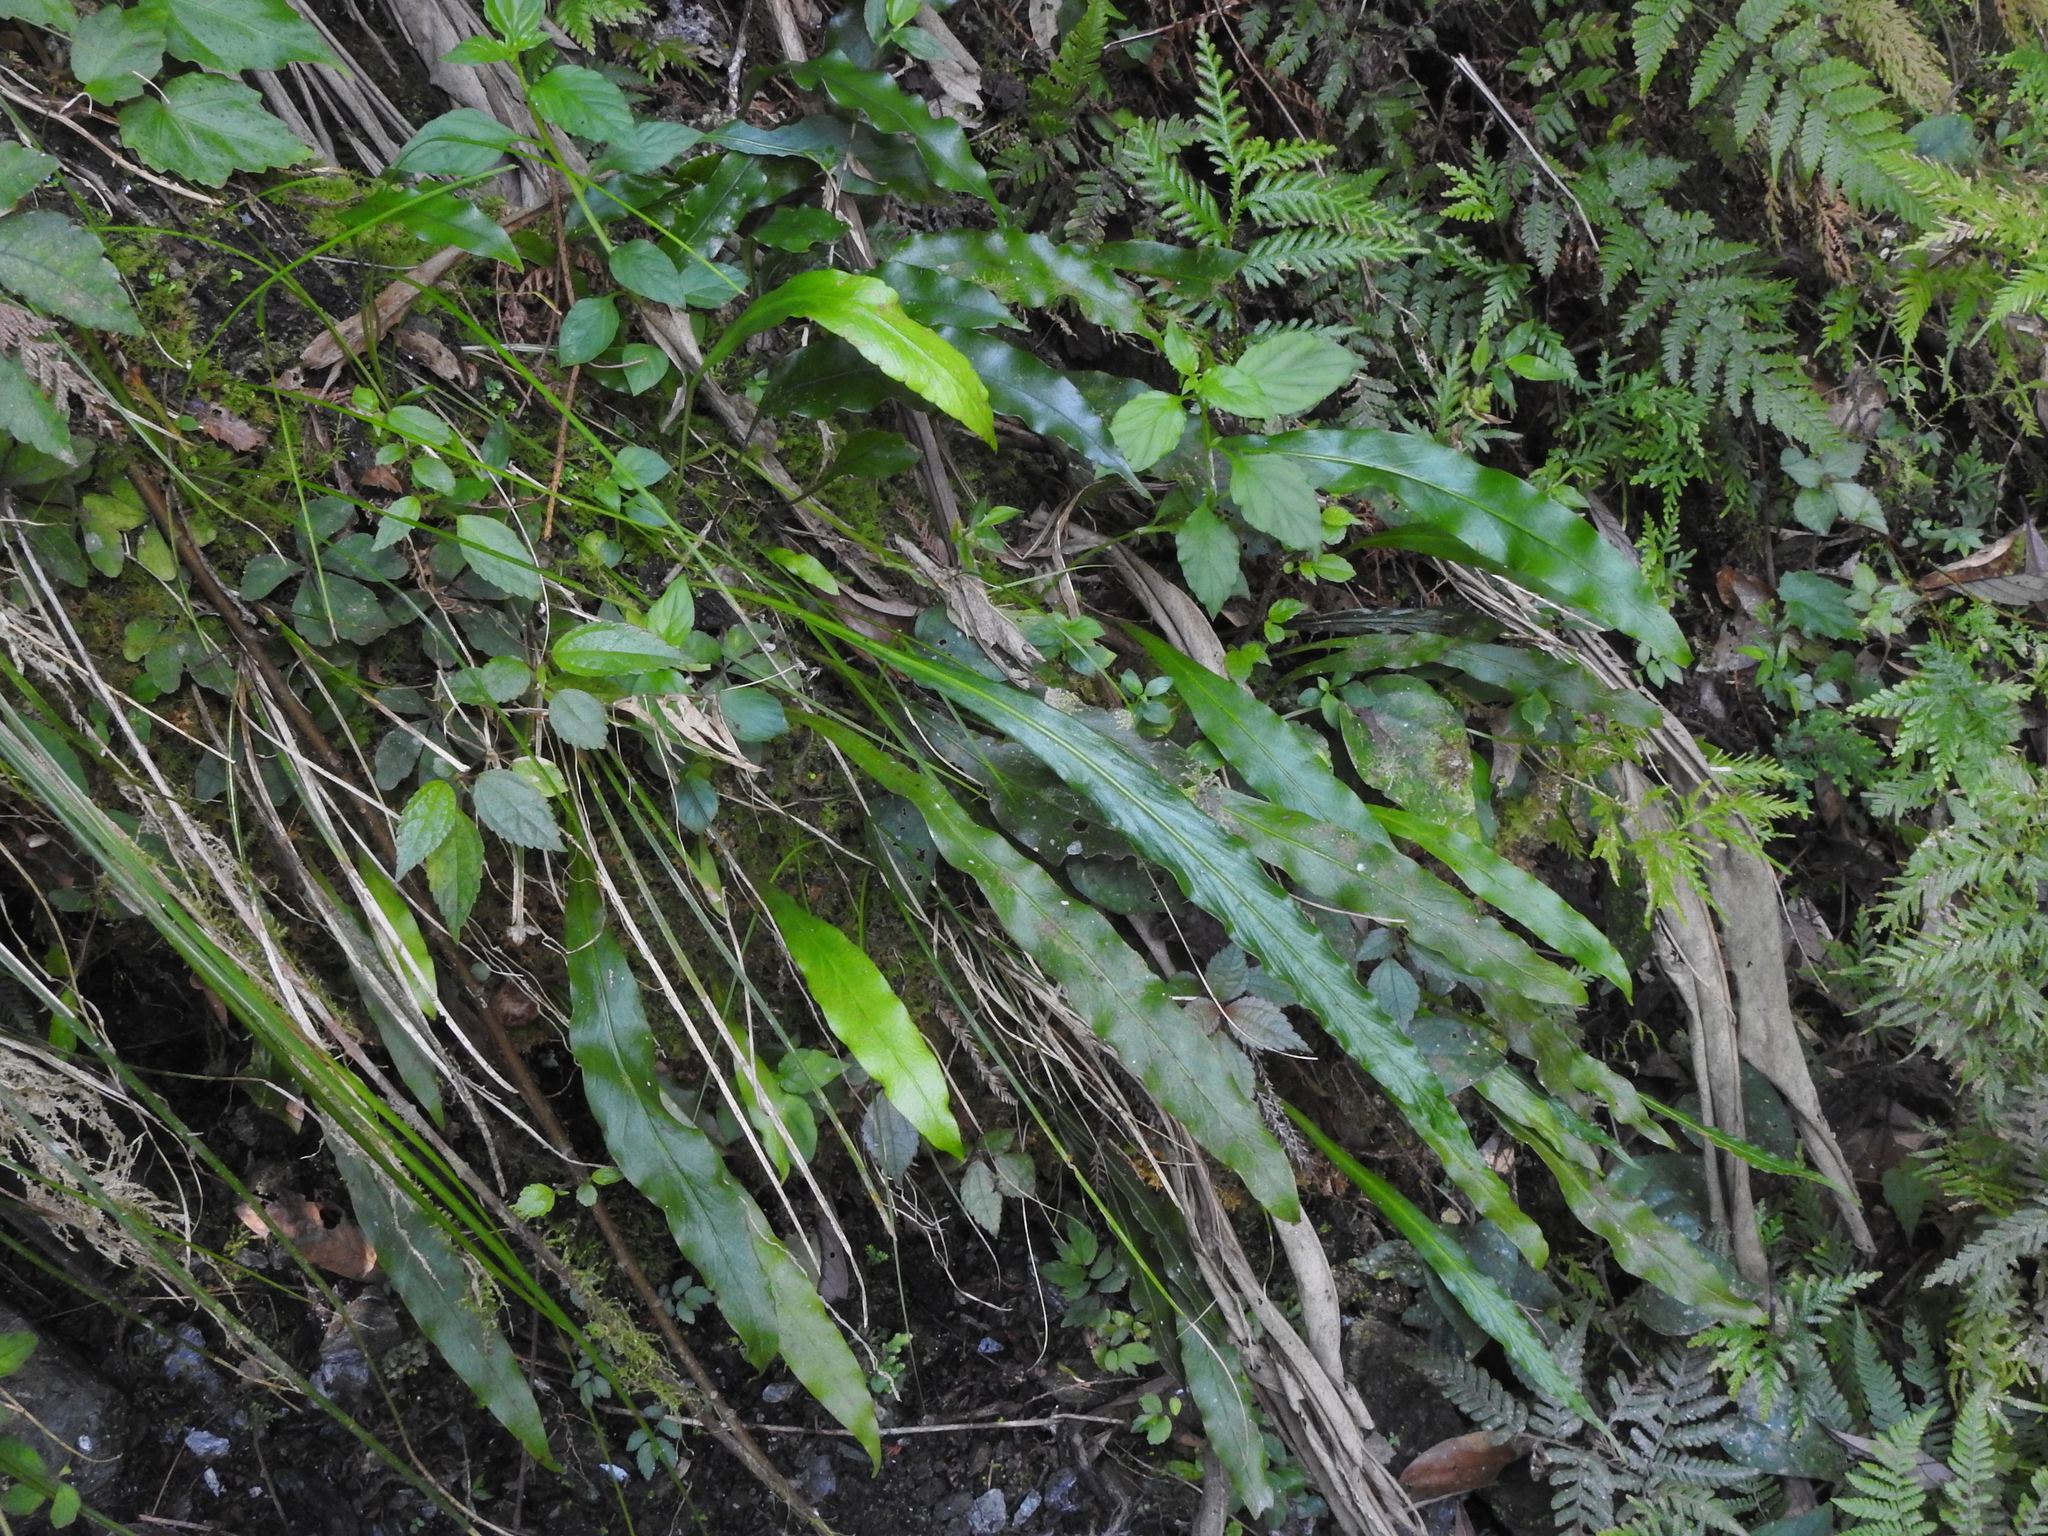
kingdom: Plantae
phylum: Tracheophyta
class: Polypodiopsida
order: Polypodiales
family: Polypodiaceae
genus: Loxogramme
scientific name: Loxogramme salicifolia
